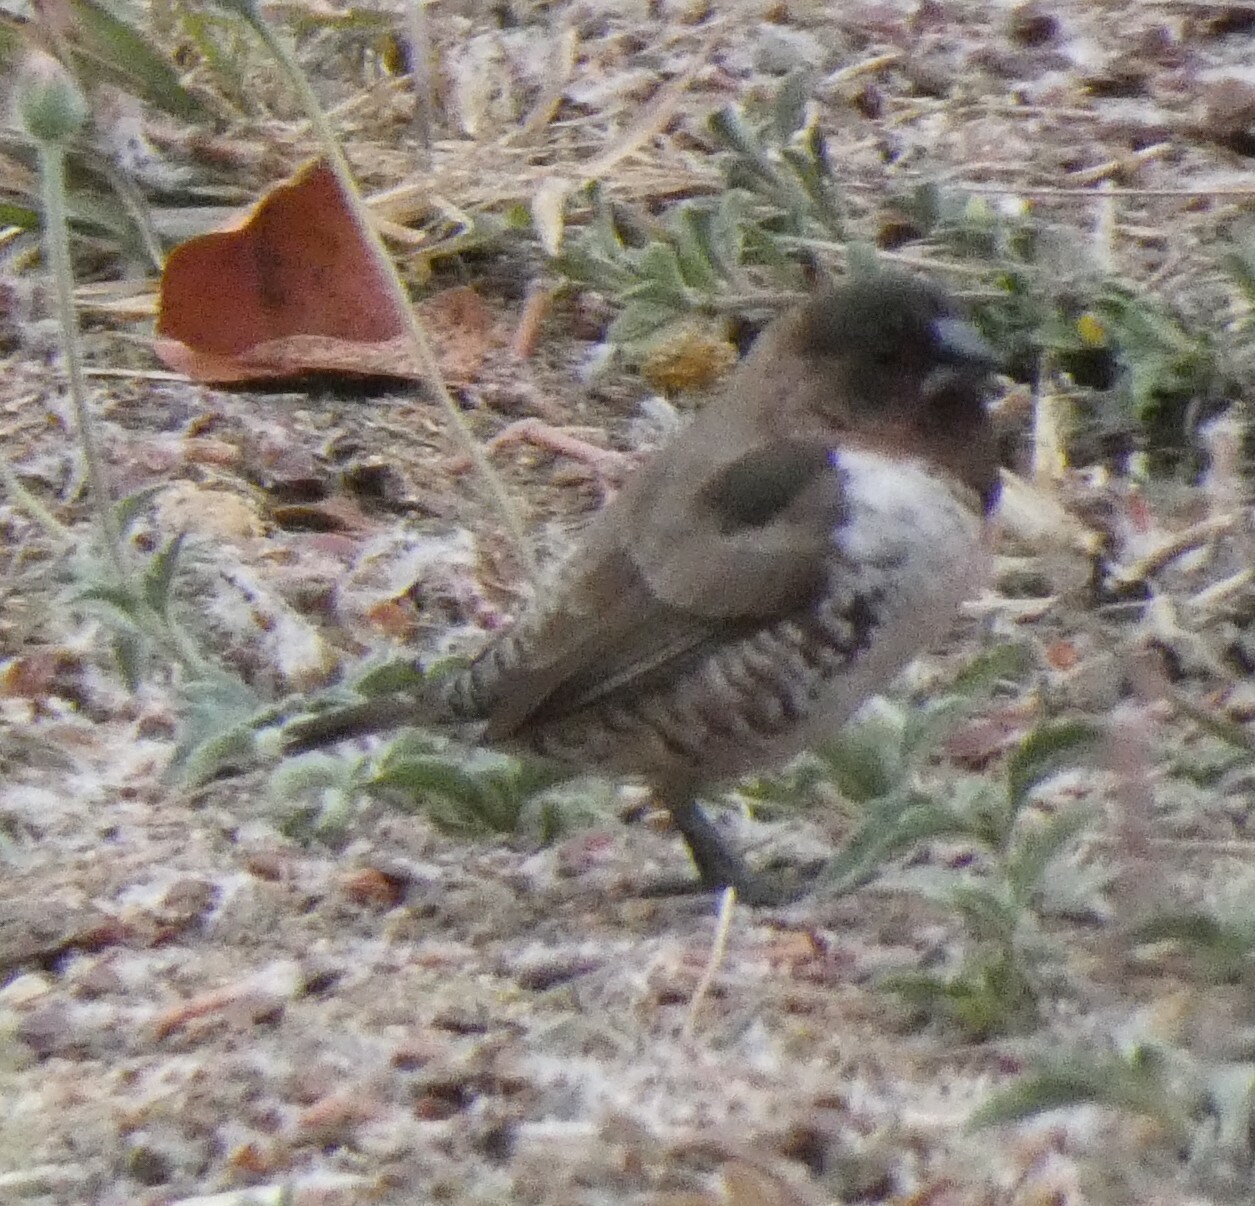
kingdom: Animalia
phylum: Chordata
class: Aves
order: Passeriformes
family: Estrildidae
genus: Lonchura
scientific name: Lonchura cucullata
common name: Bronze mannikin
